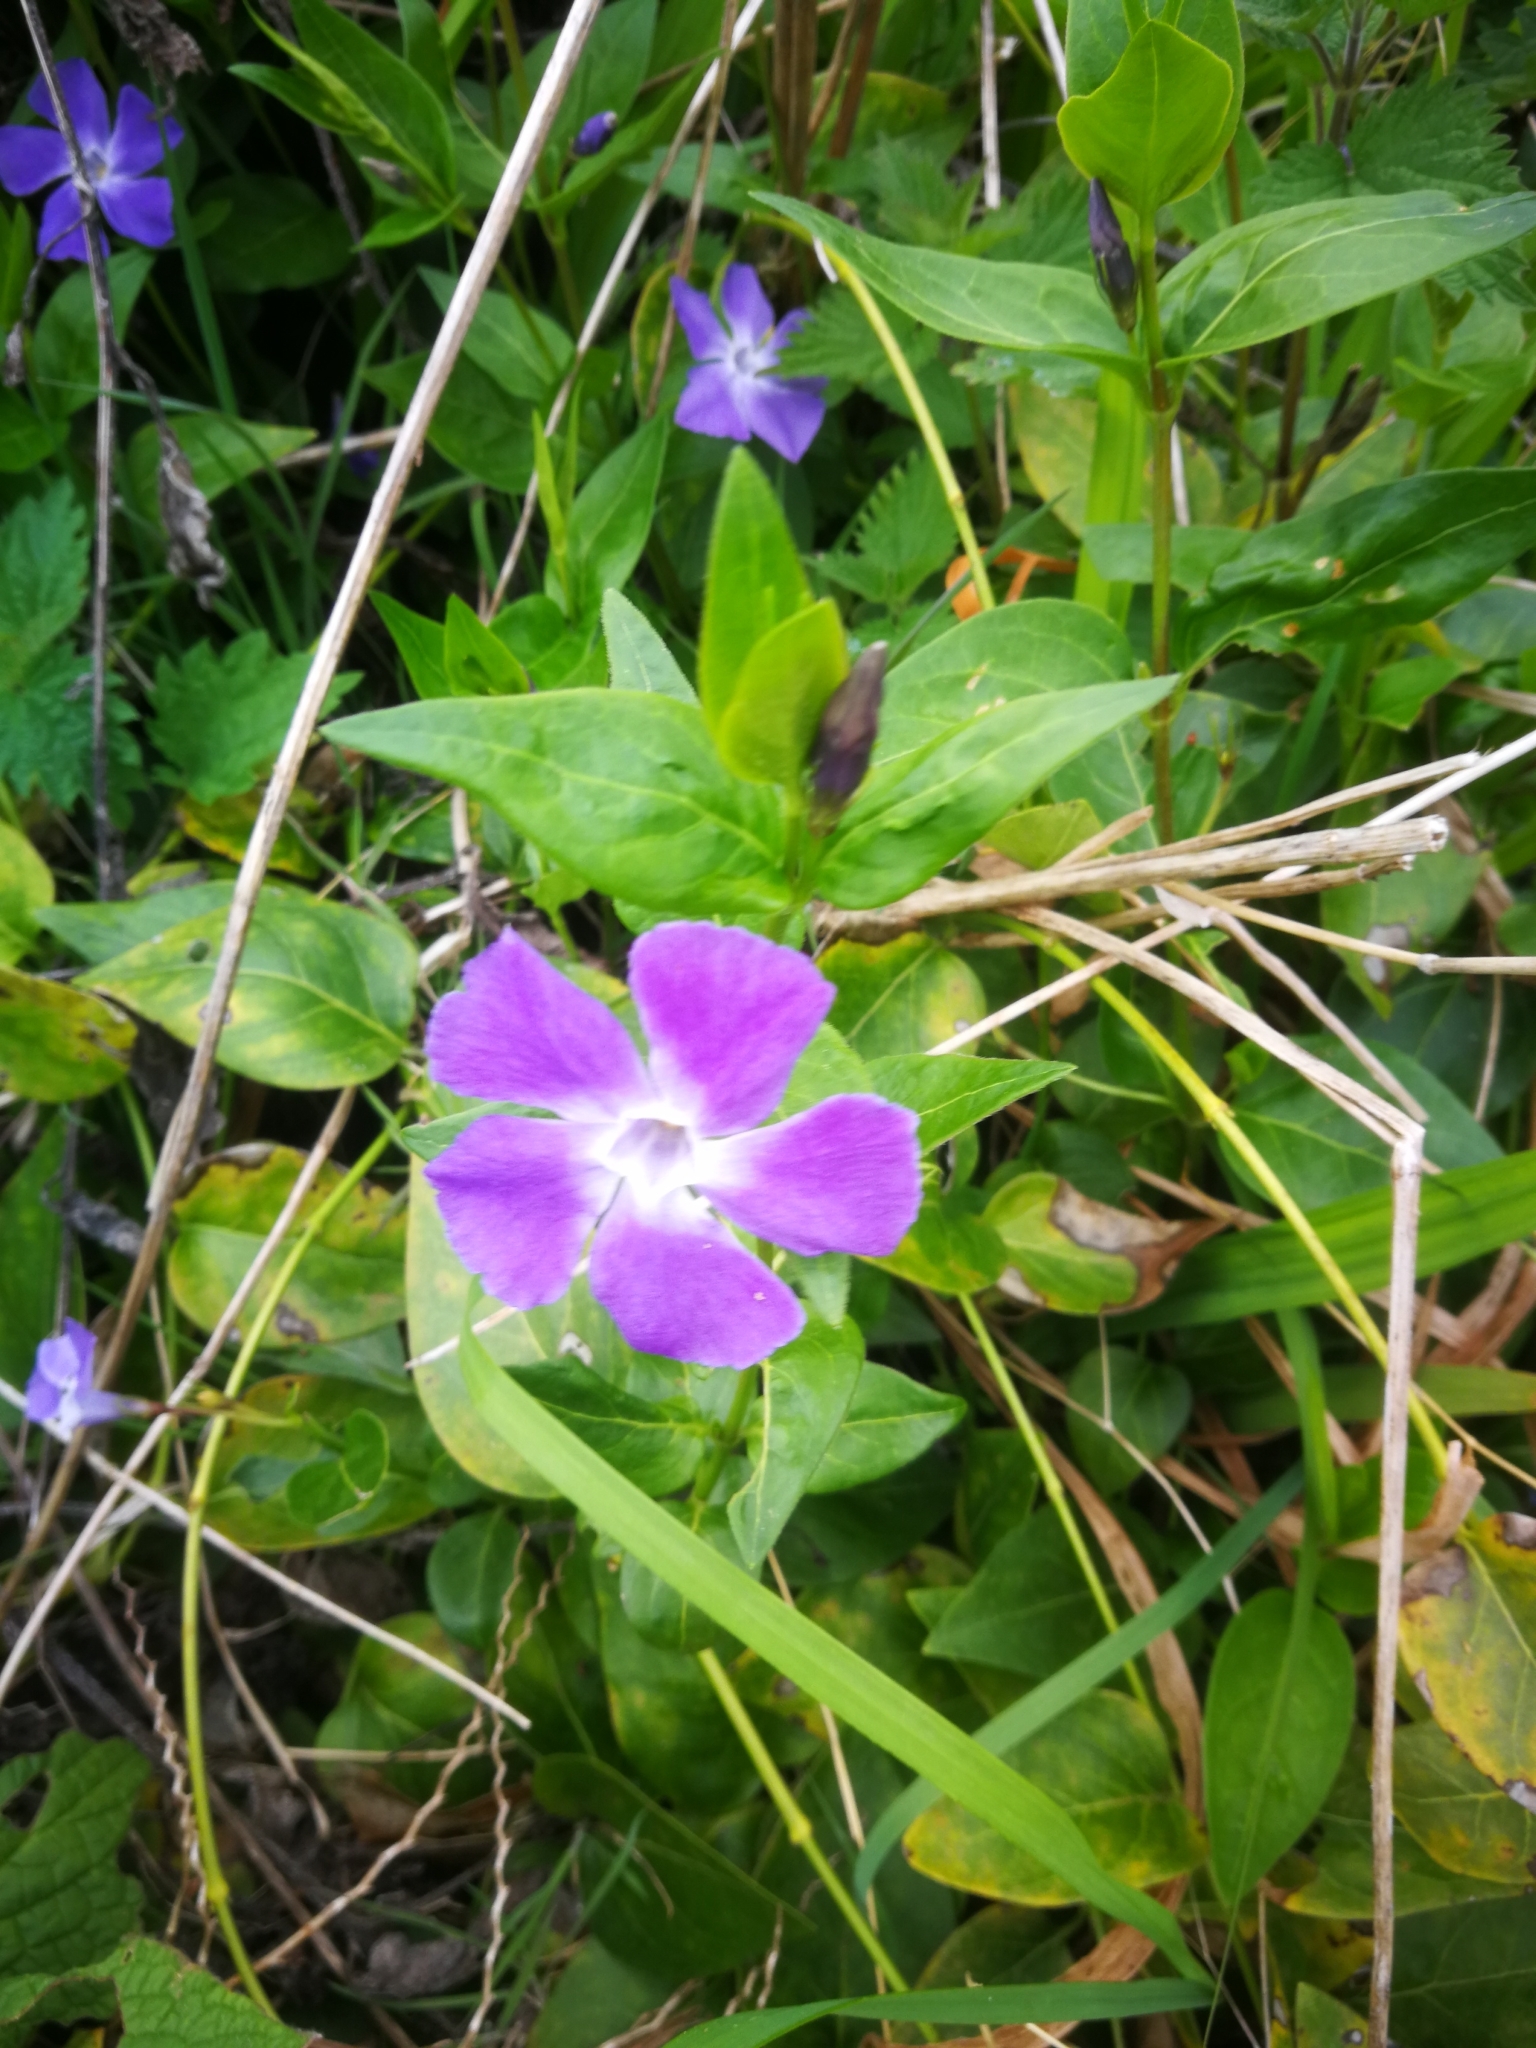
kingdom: Plantae
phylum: Tracheophyta
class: Magnoliopsida
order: Gentianales
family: Apocynaceae
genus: Vinca
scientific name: Vinca major
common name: Greater periwinkle
